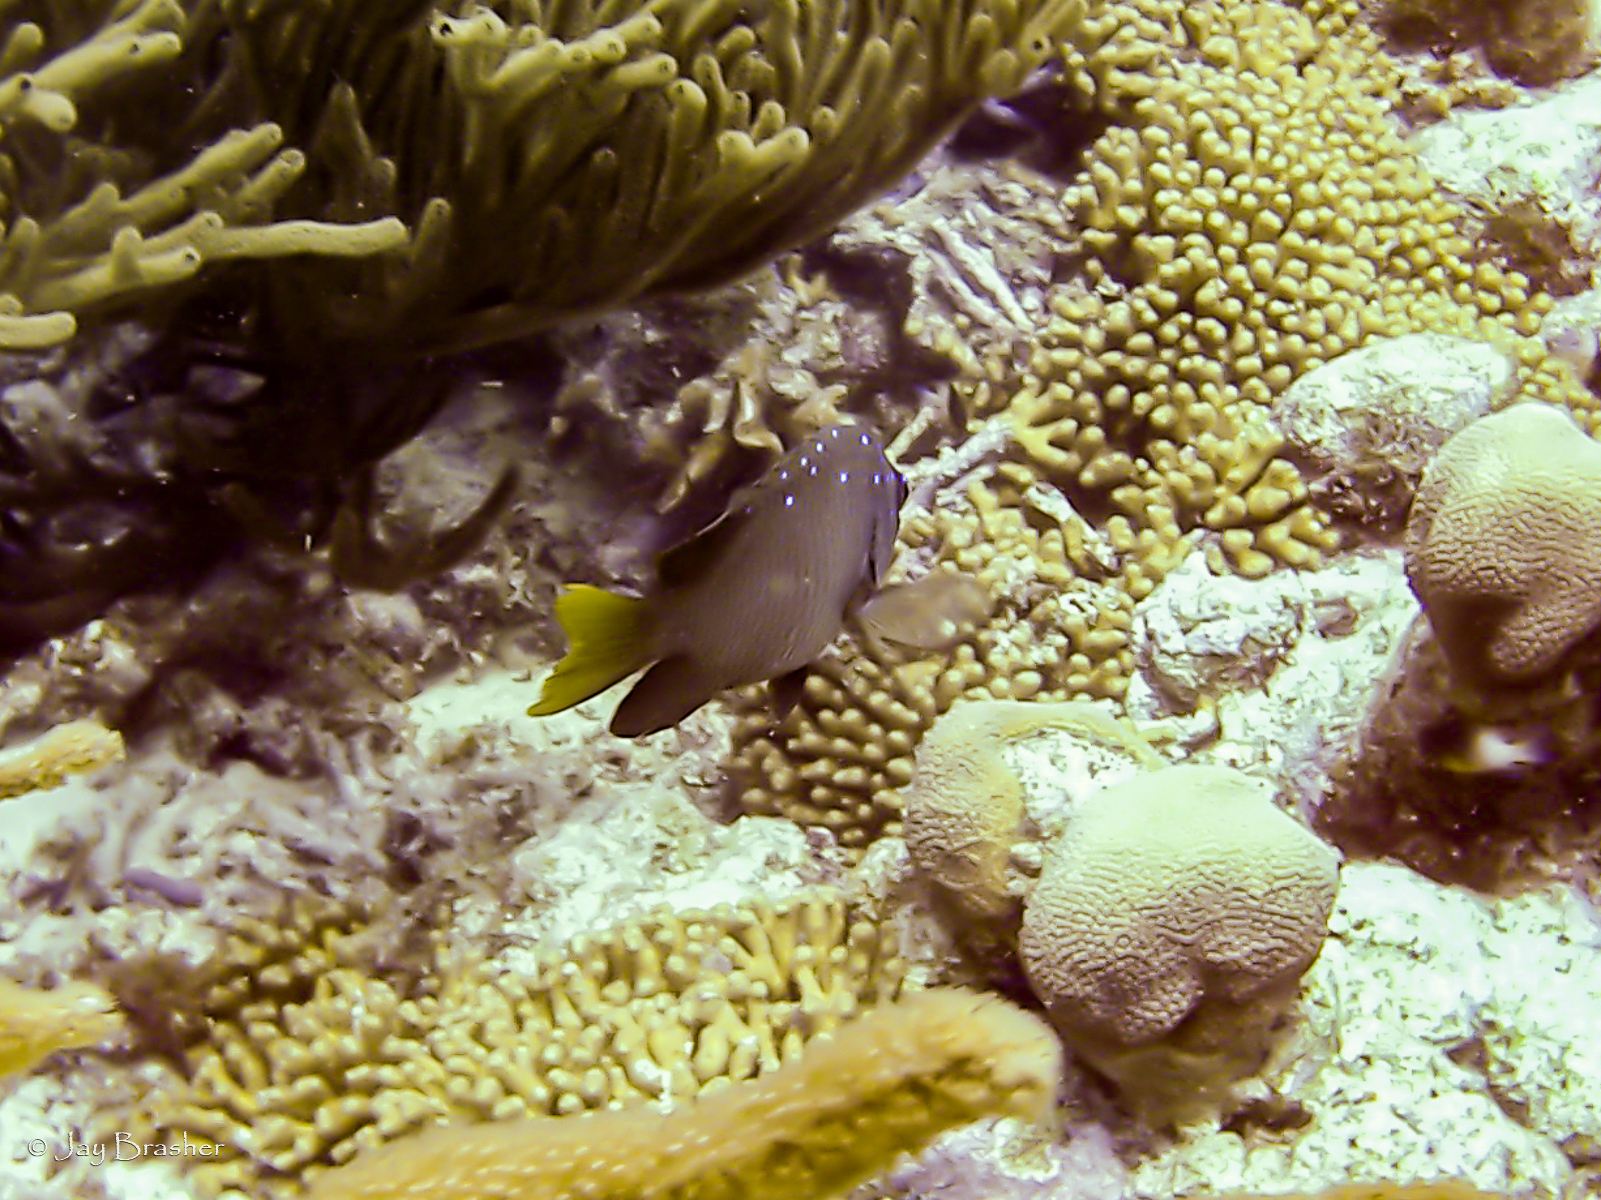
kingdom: Animalia
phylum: Chordata
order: Perciformes
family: Pomacentridae
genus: Microspathodon
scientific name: Microspathodon chrysurus
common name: Yellowtail damselfish
